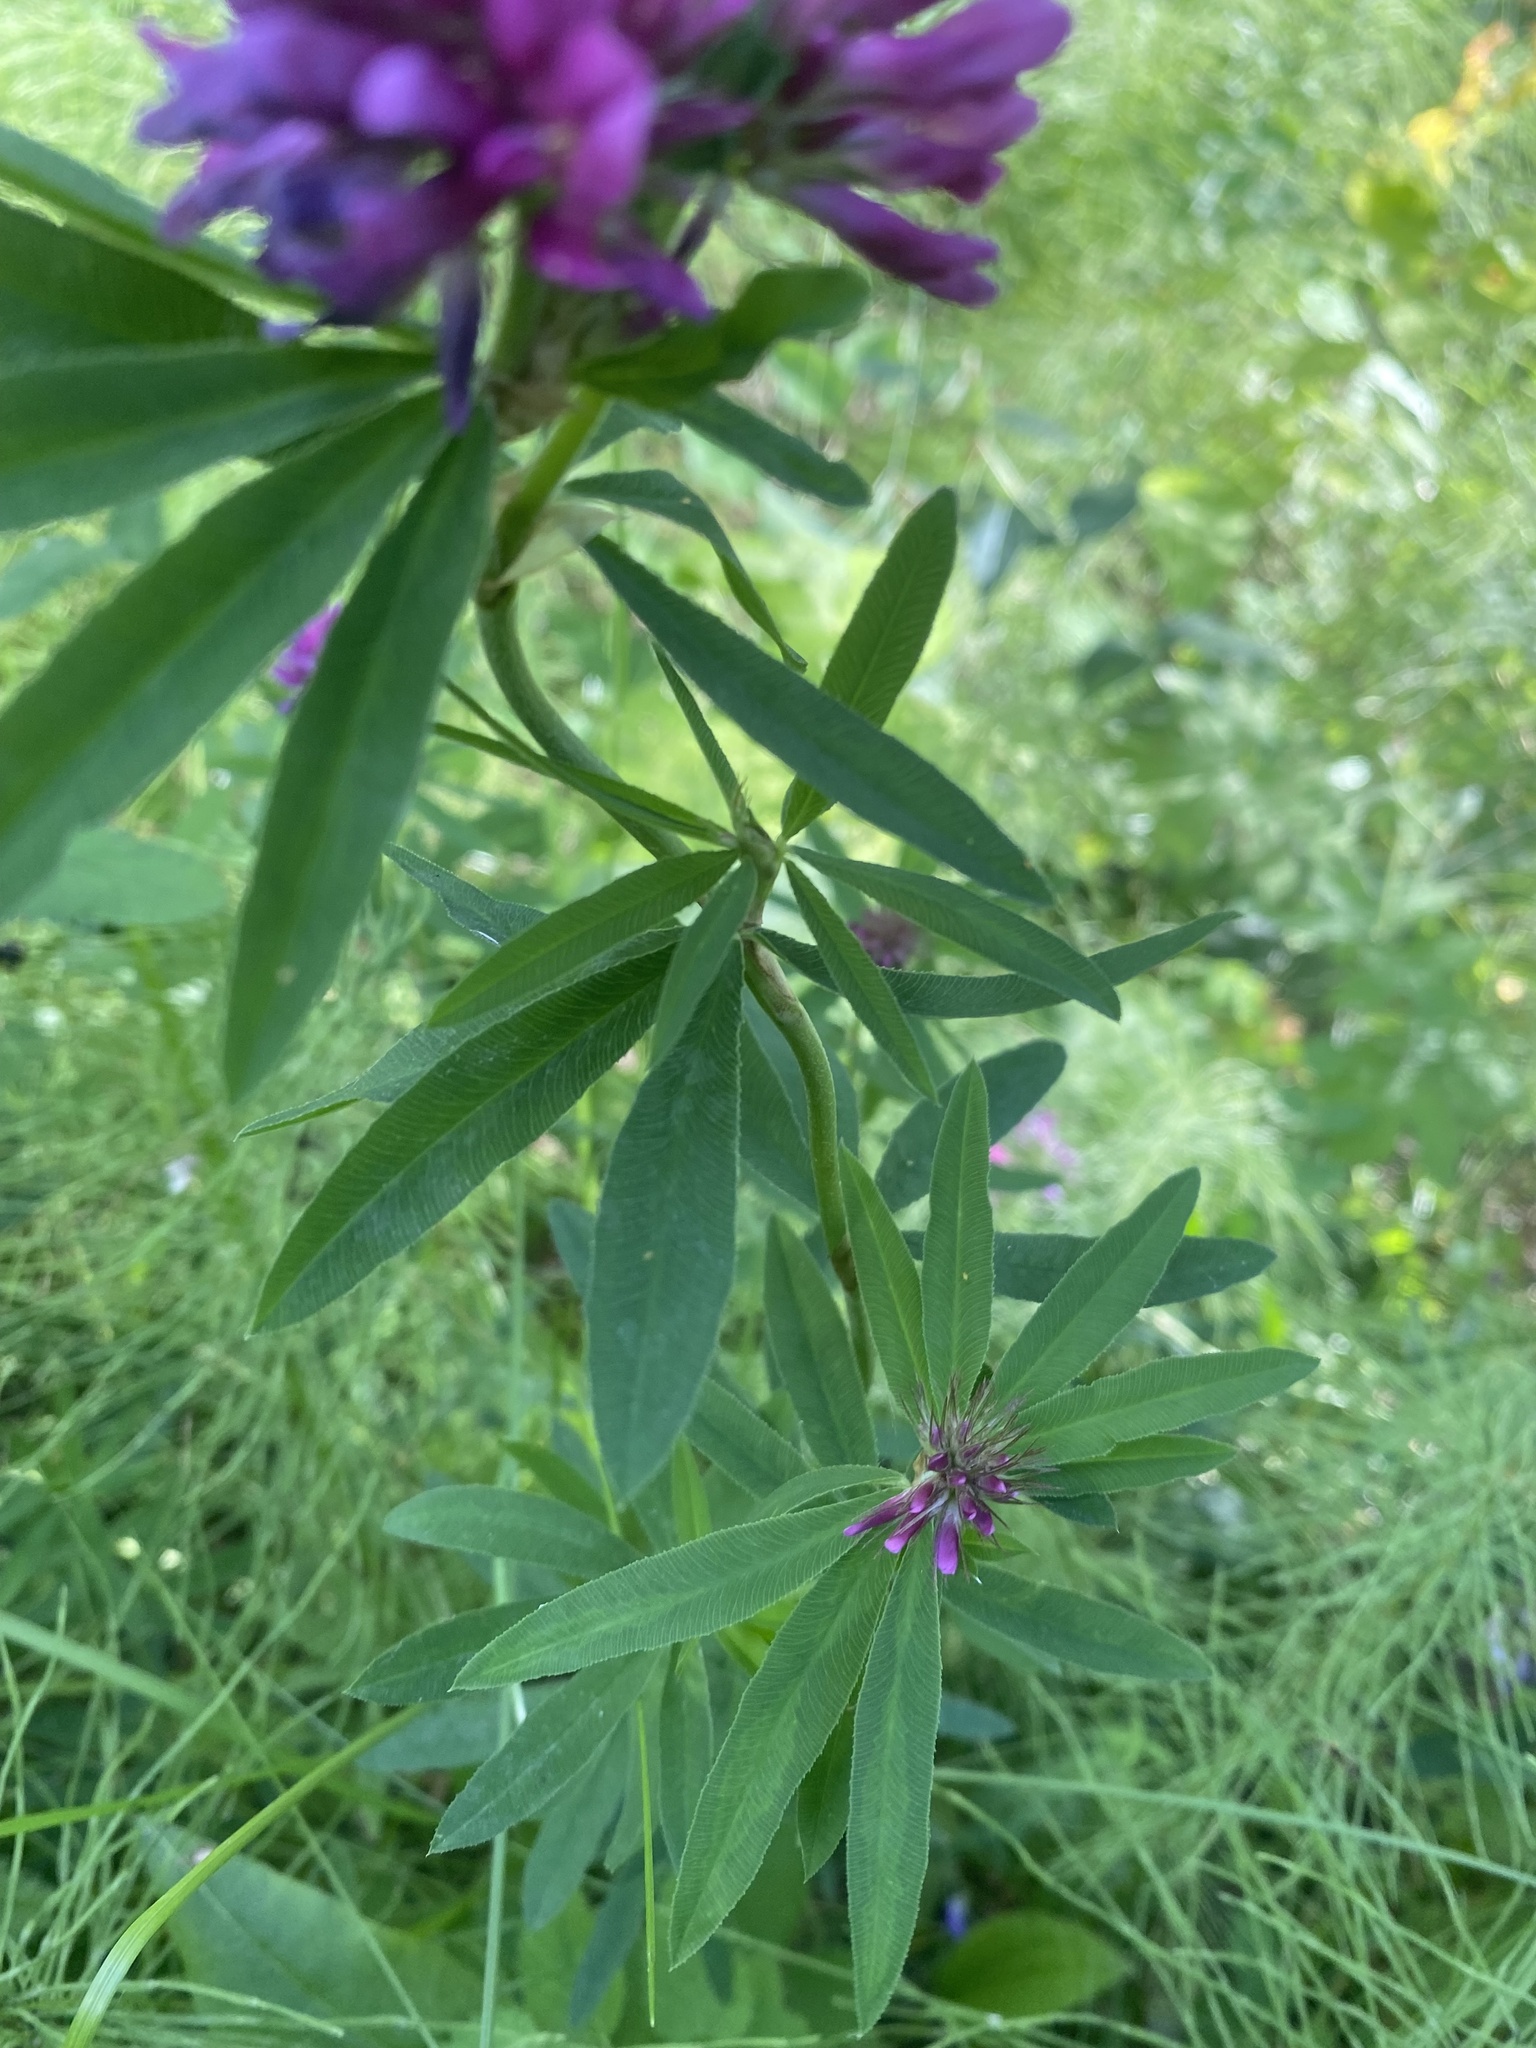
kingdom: Plantae
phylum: Tracheophyta
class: Magnoliopsida
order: Fabales
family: Fabaceae
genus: Trifolium
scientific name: Trifolium lupinaster
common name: Lupine clover
